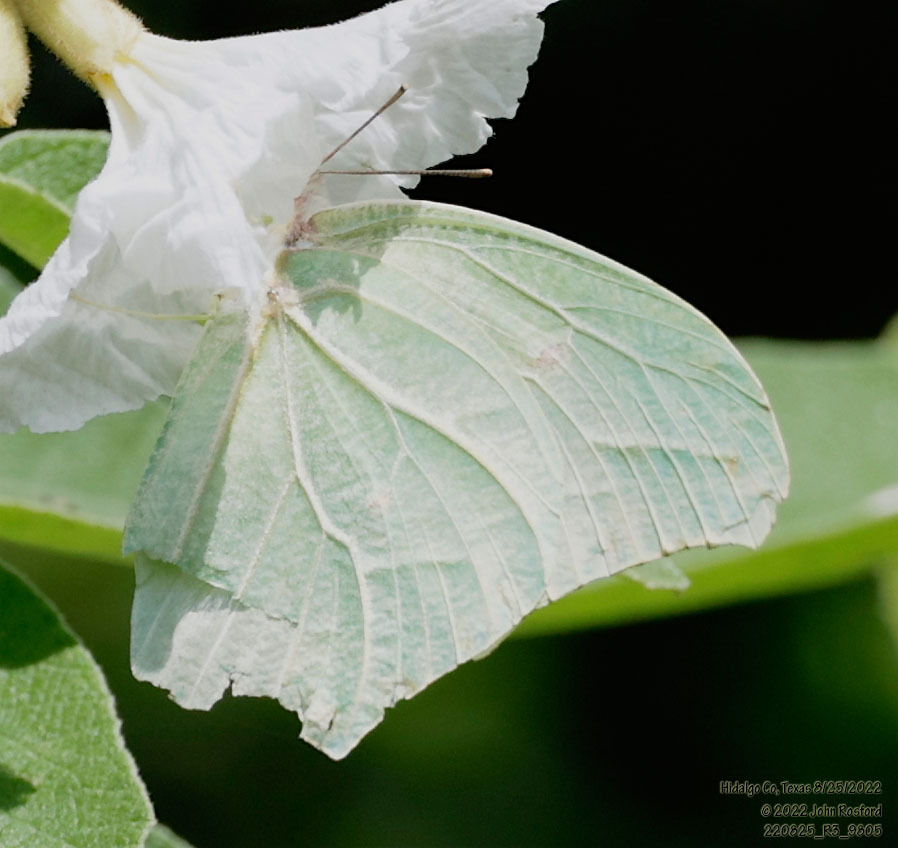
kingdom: Animalia
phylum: Arthropoda
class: Insecta
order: Lepidoptera
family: Pieridae
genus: Anteos
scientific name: Anteos clorinde
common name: White angled sulphur
